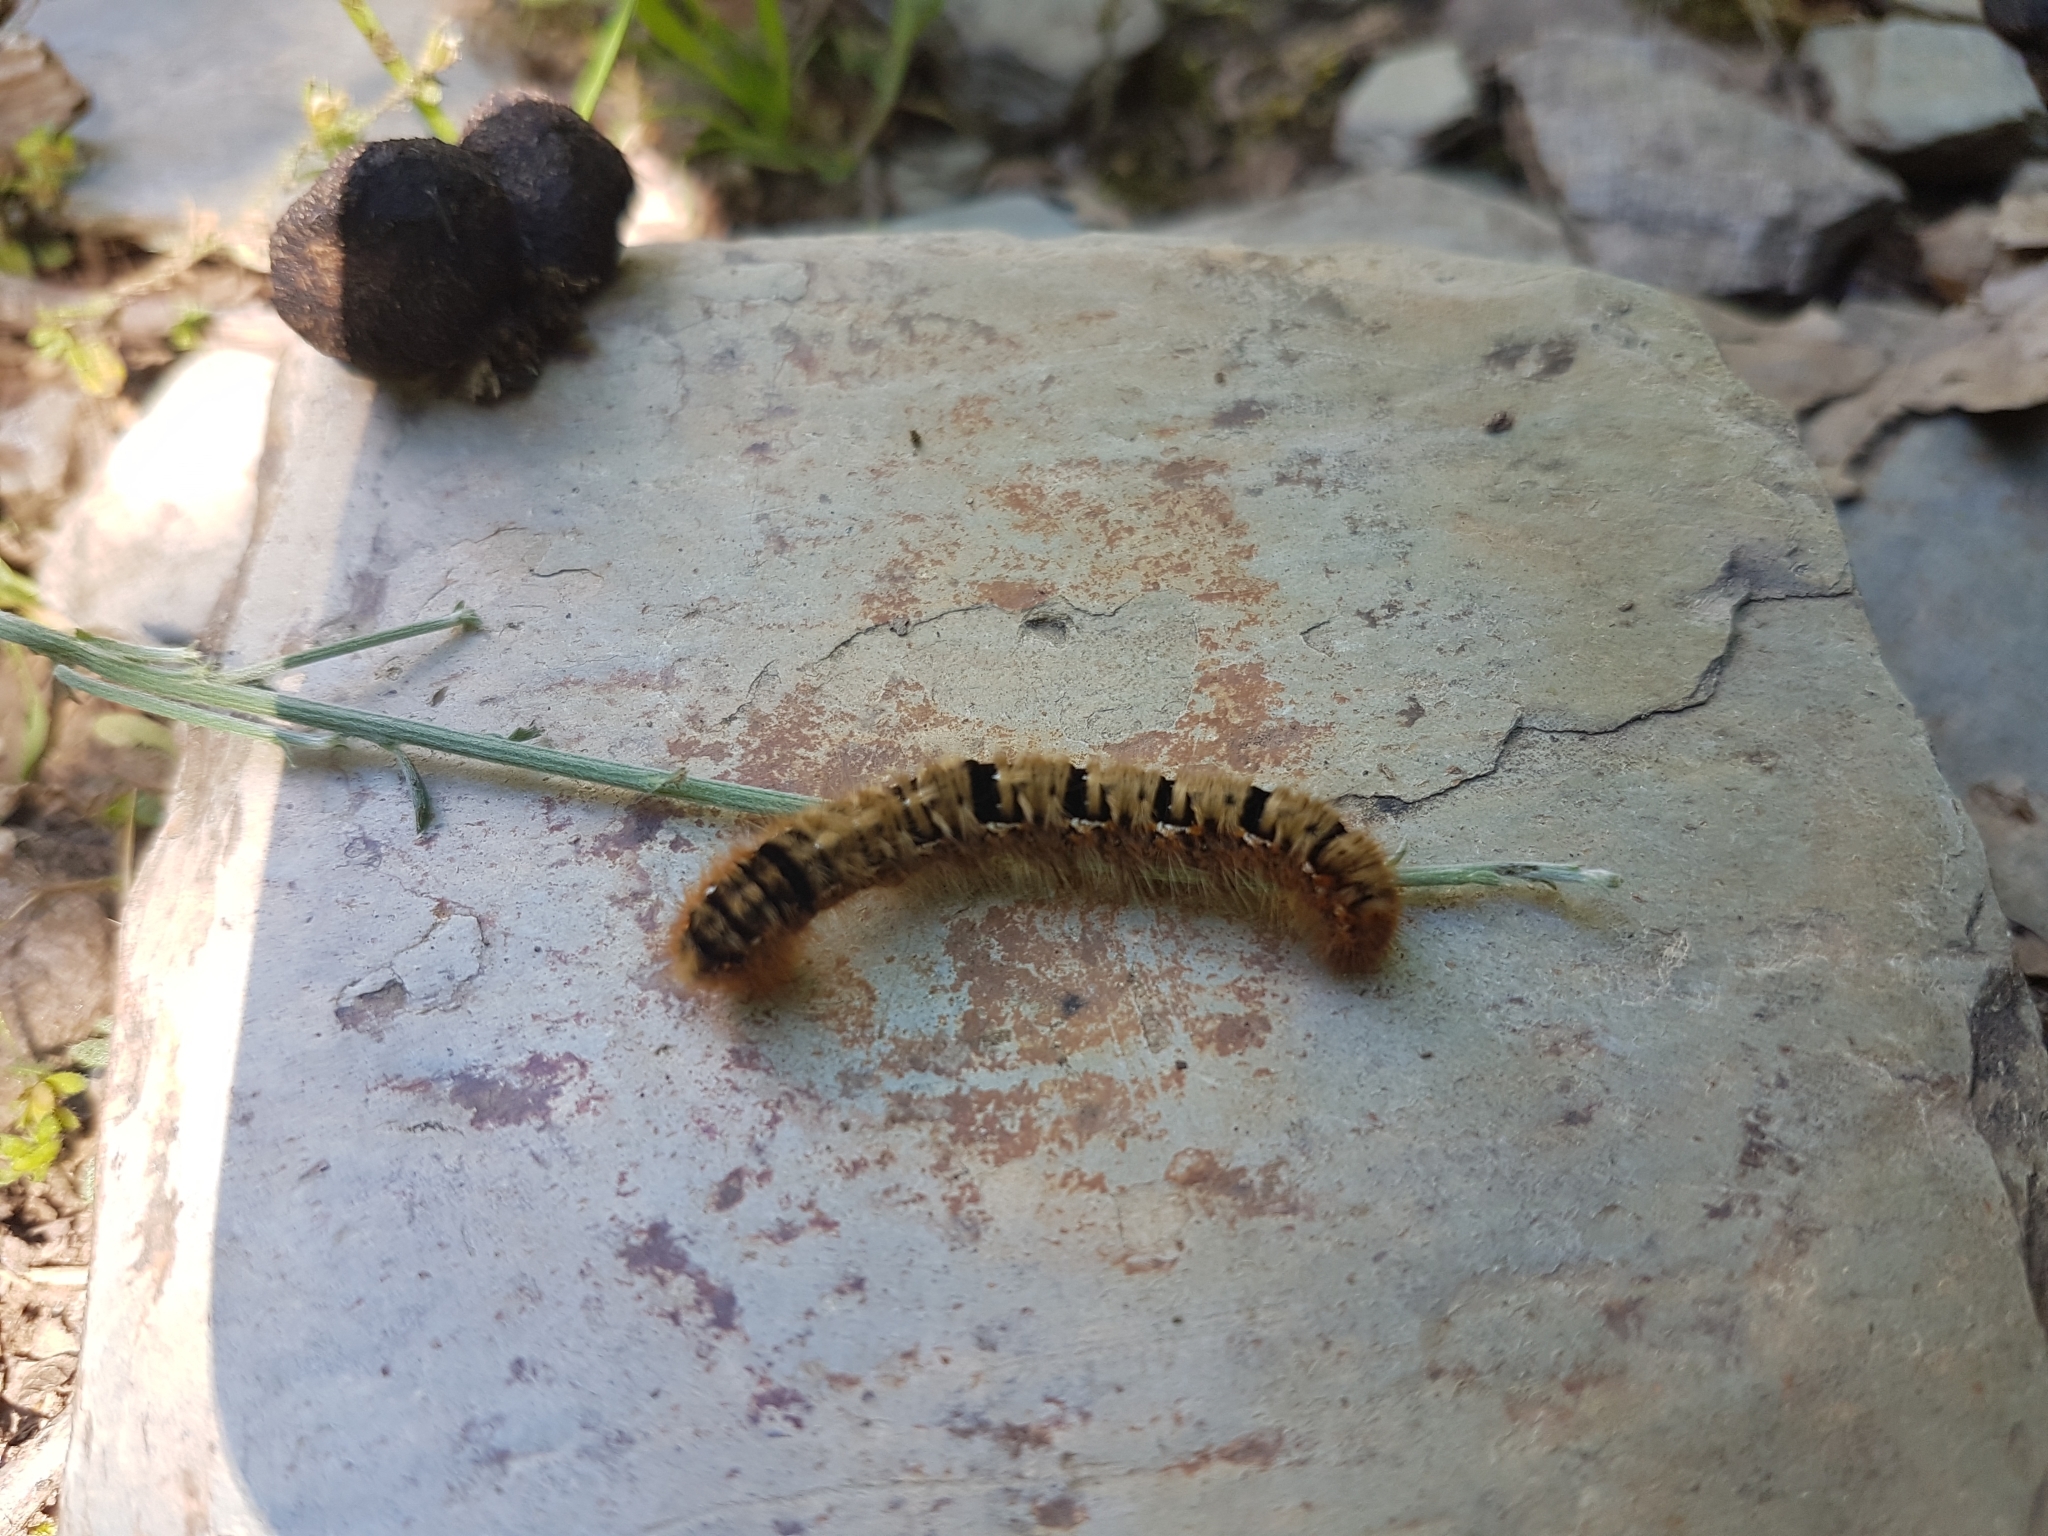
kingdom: Animalia
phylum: Arthropoda
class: Insecta
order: Lepidoptera
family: Lasiocampidae
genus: Lasiocampa
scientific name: Lasiocampa quercus
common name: Oak eggar
